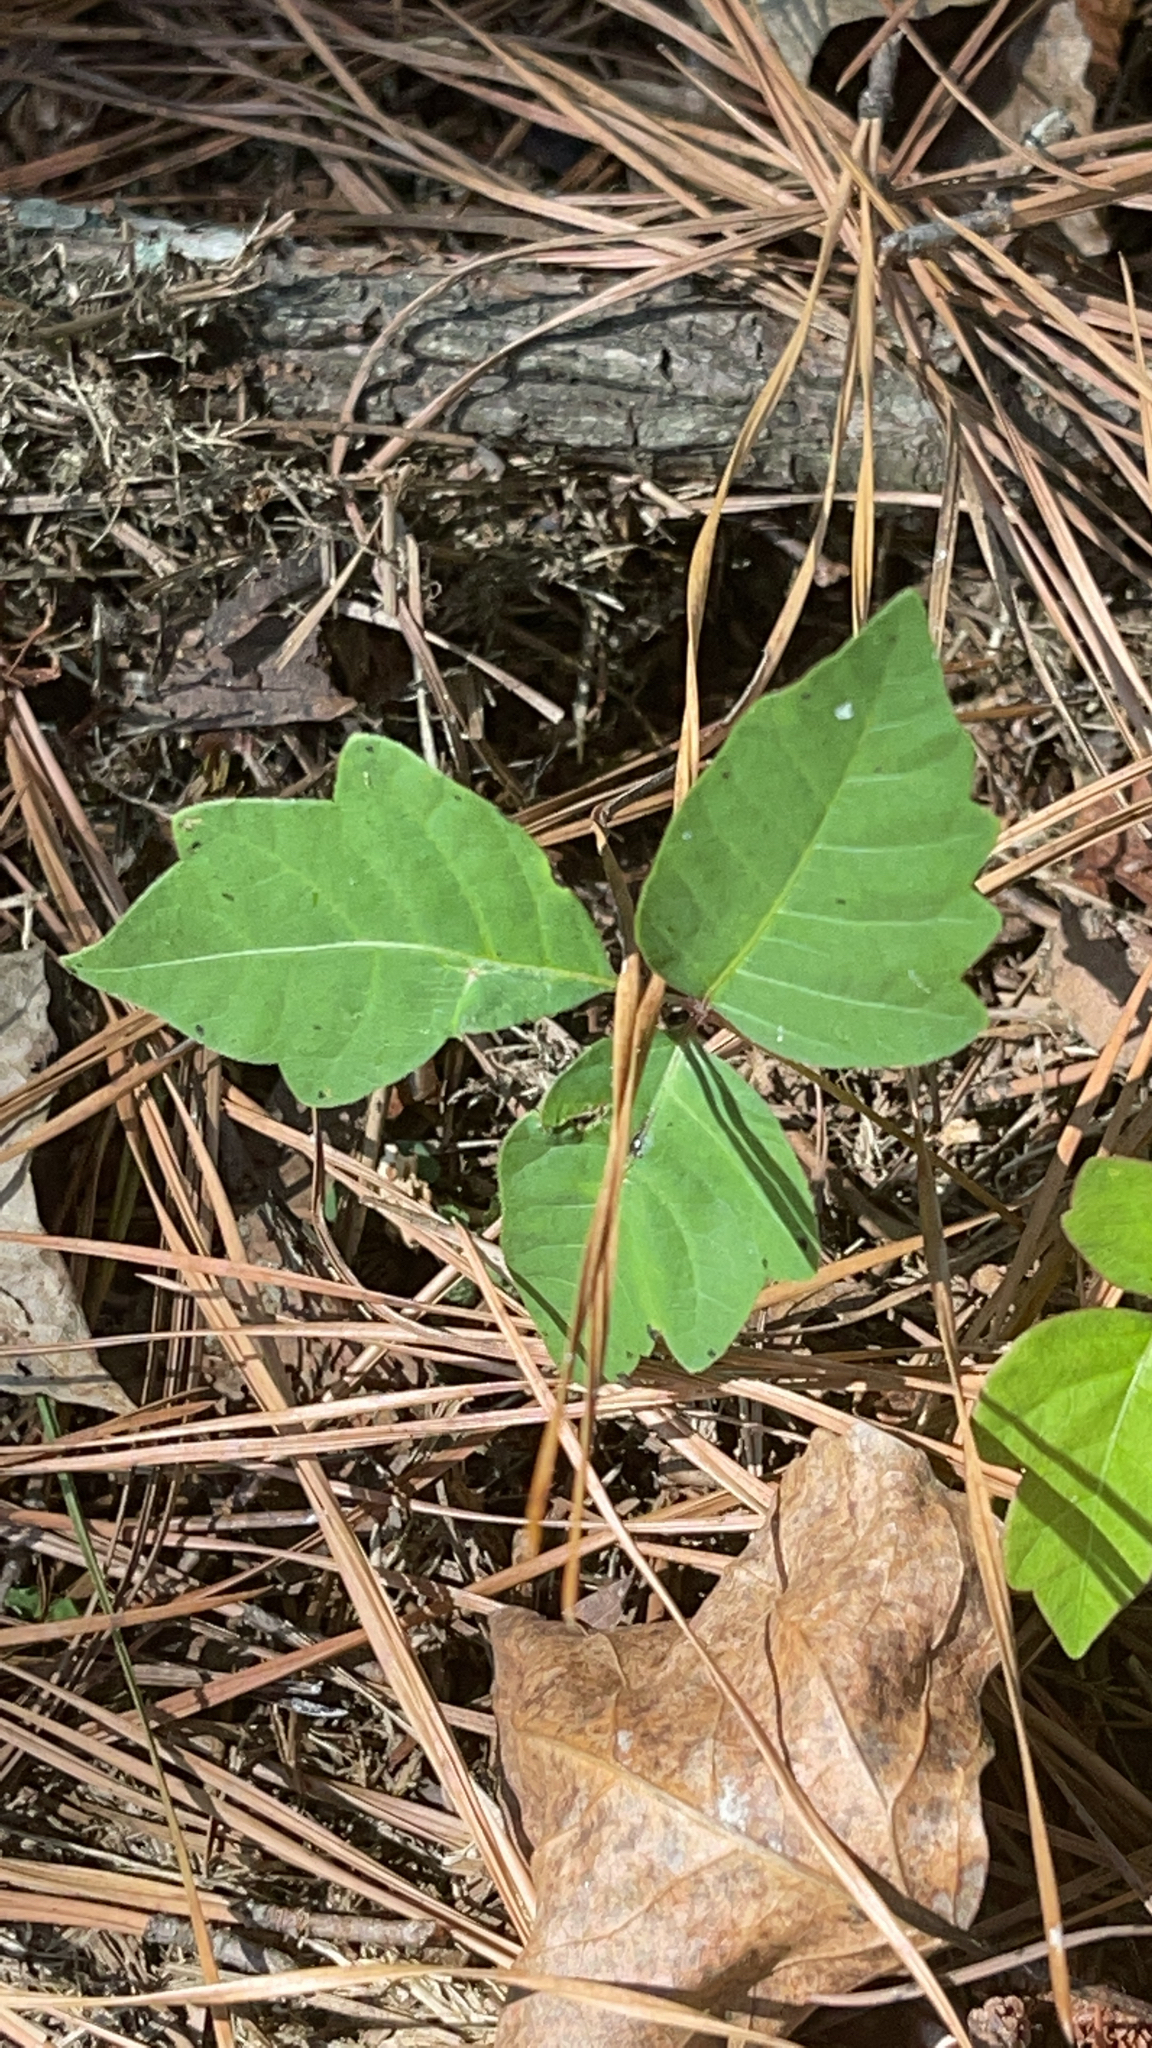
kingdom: Plantae
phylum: Tracheophyta
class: Magnoliopsida
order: Sapindales
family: Anacardiaceae
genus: Toxicodendron
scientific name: Toxicodendron pubescens
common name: Eastern poison-oak
